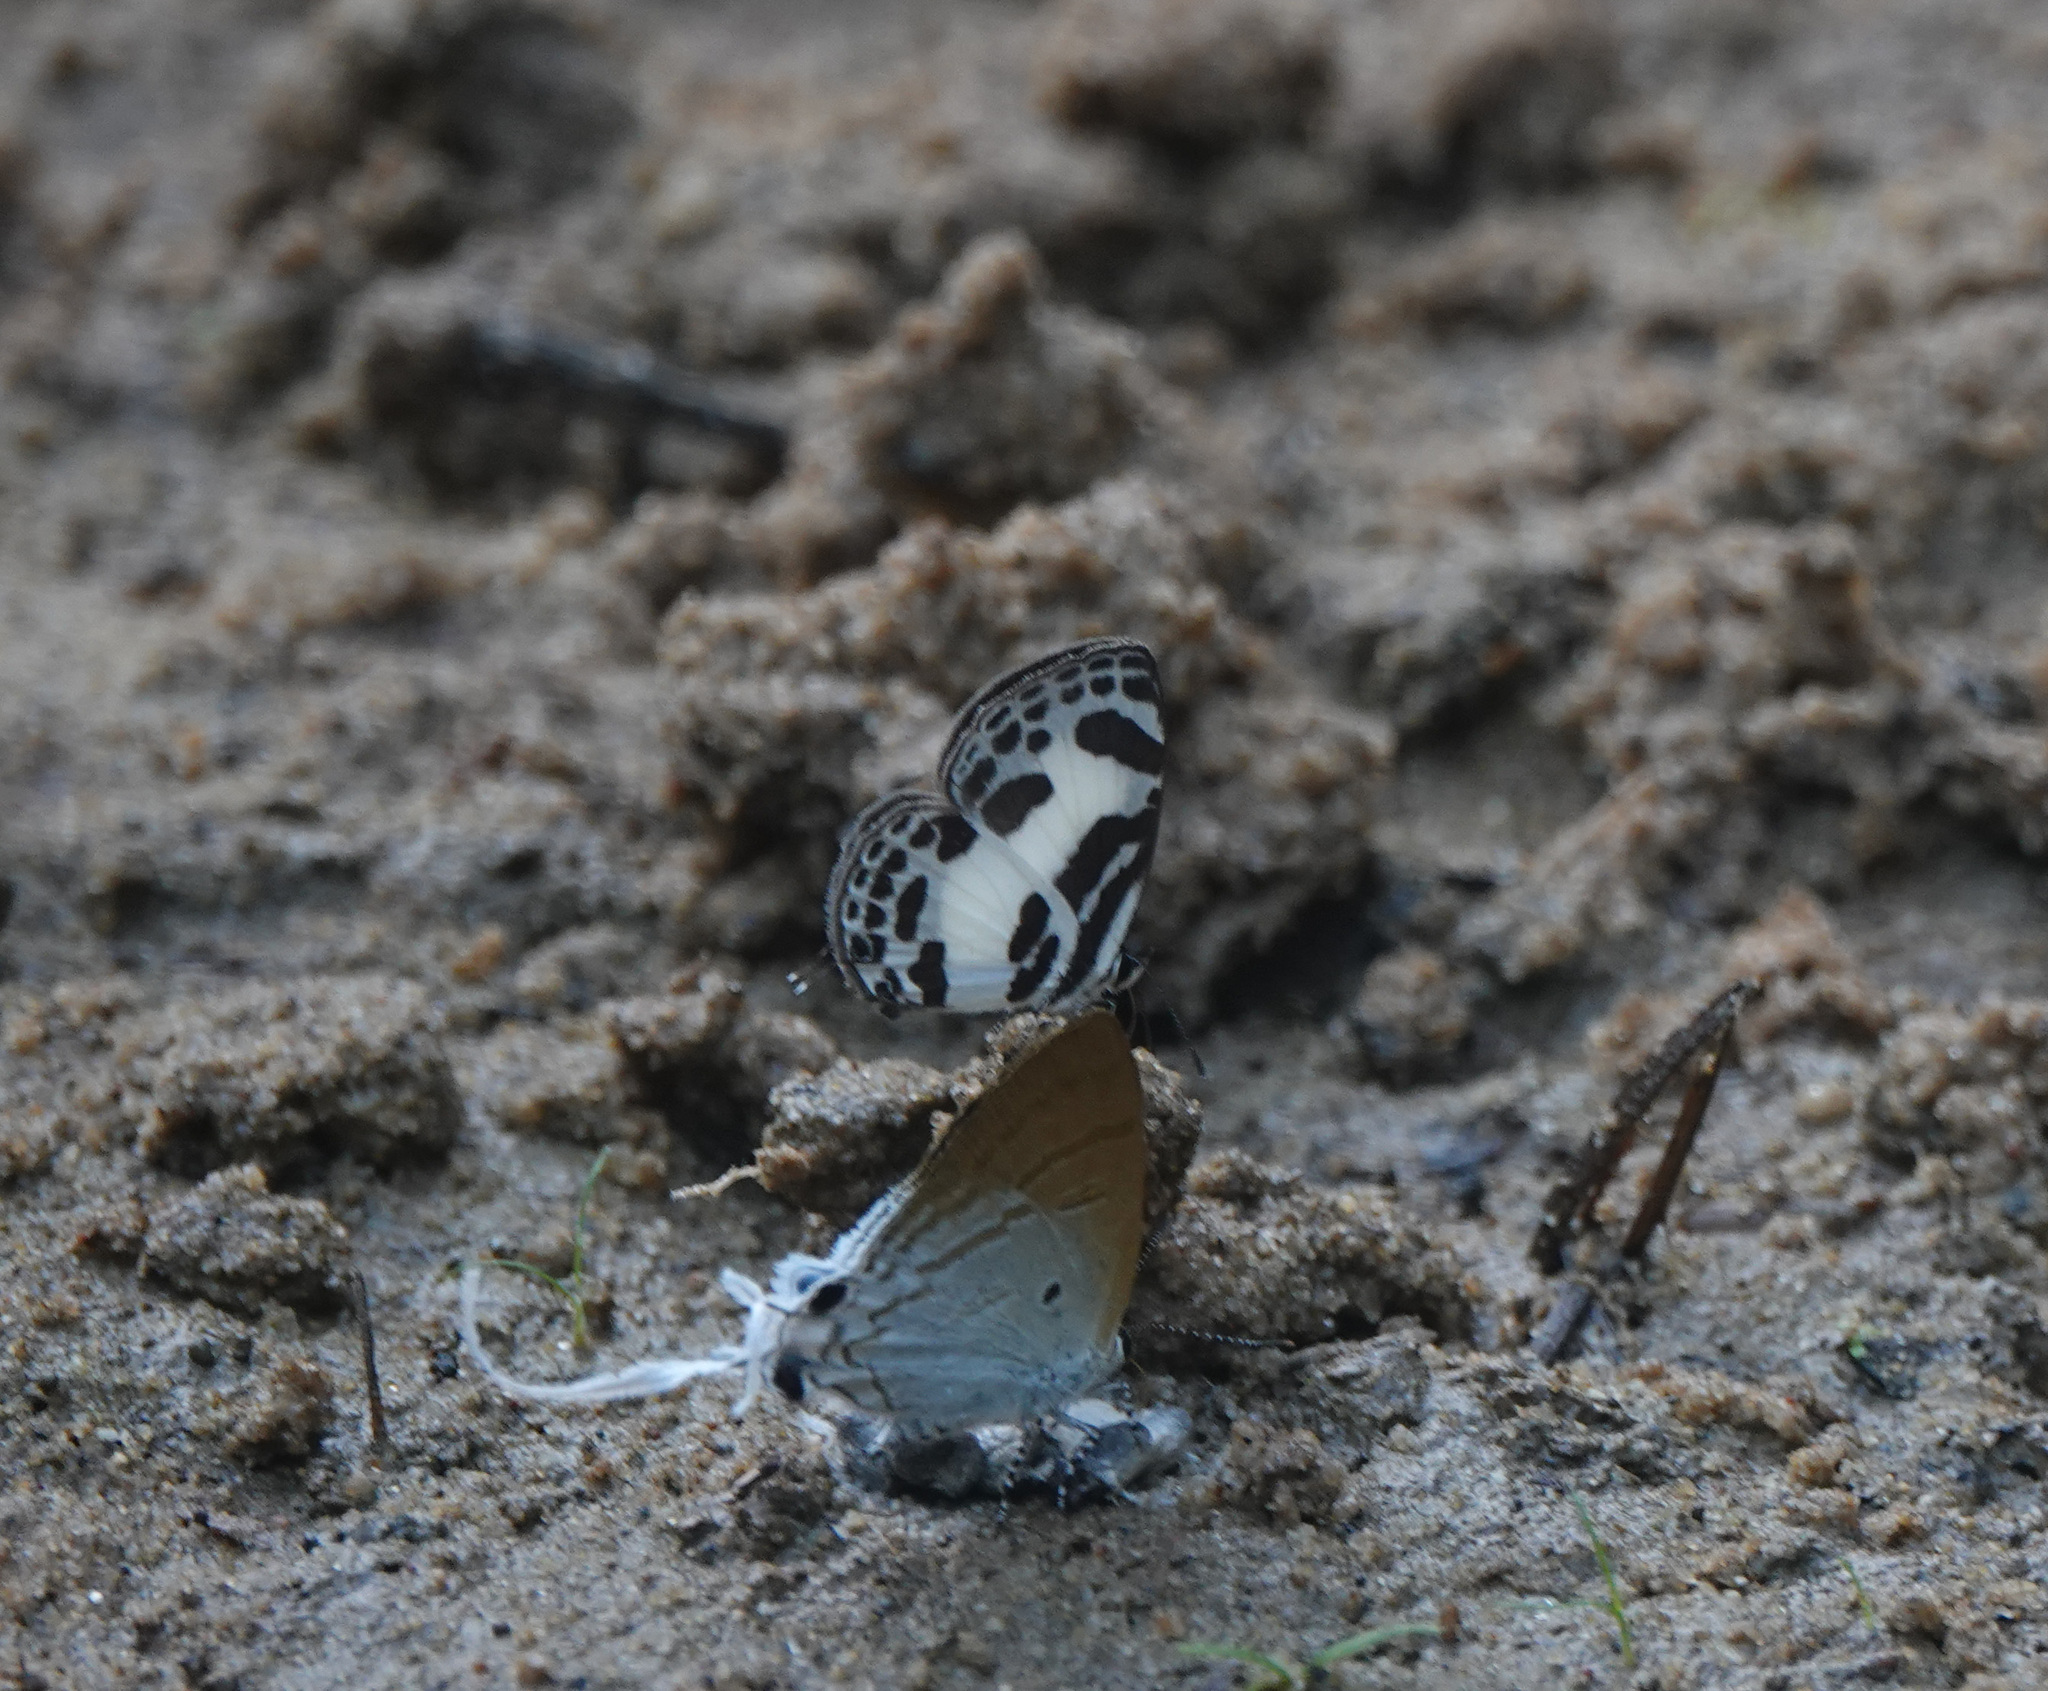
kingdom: Animalia
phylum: Arthropoda
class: Insecta
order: Lepidoptera
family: Lycaenidae
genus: Discolampa
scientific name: Discolampa ethion
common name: Banded blue pierrot
